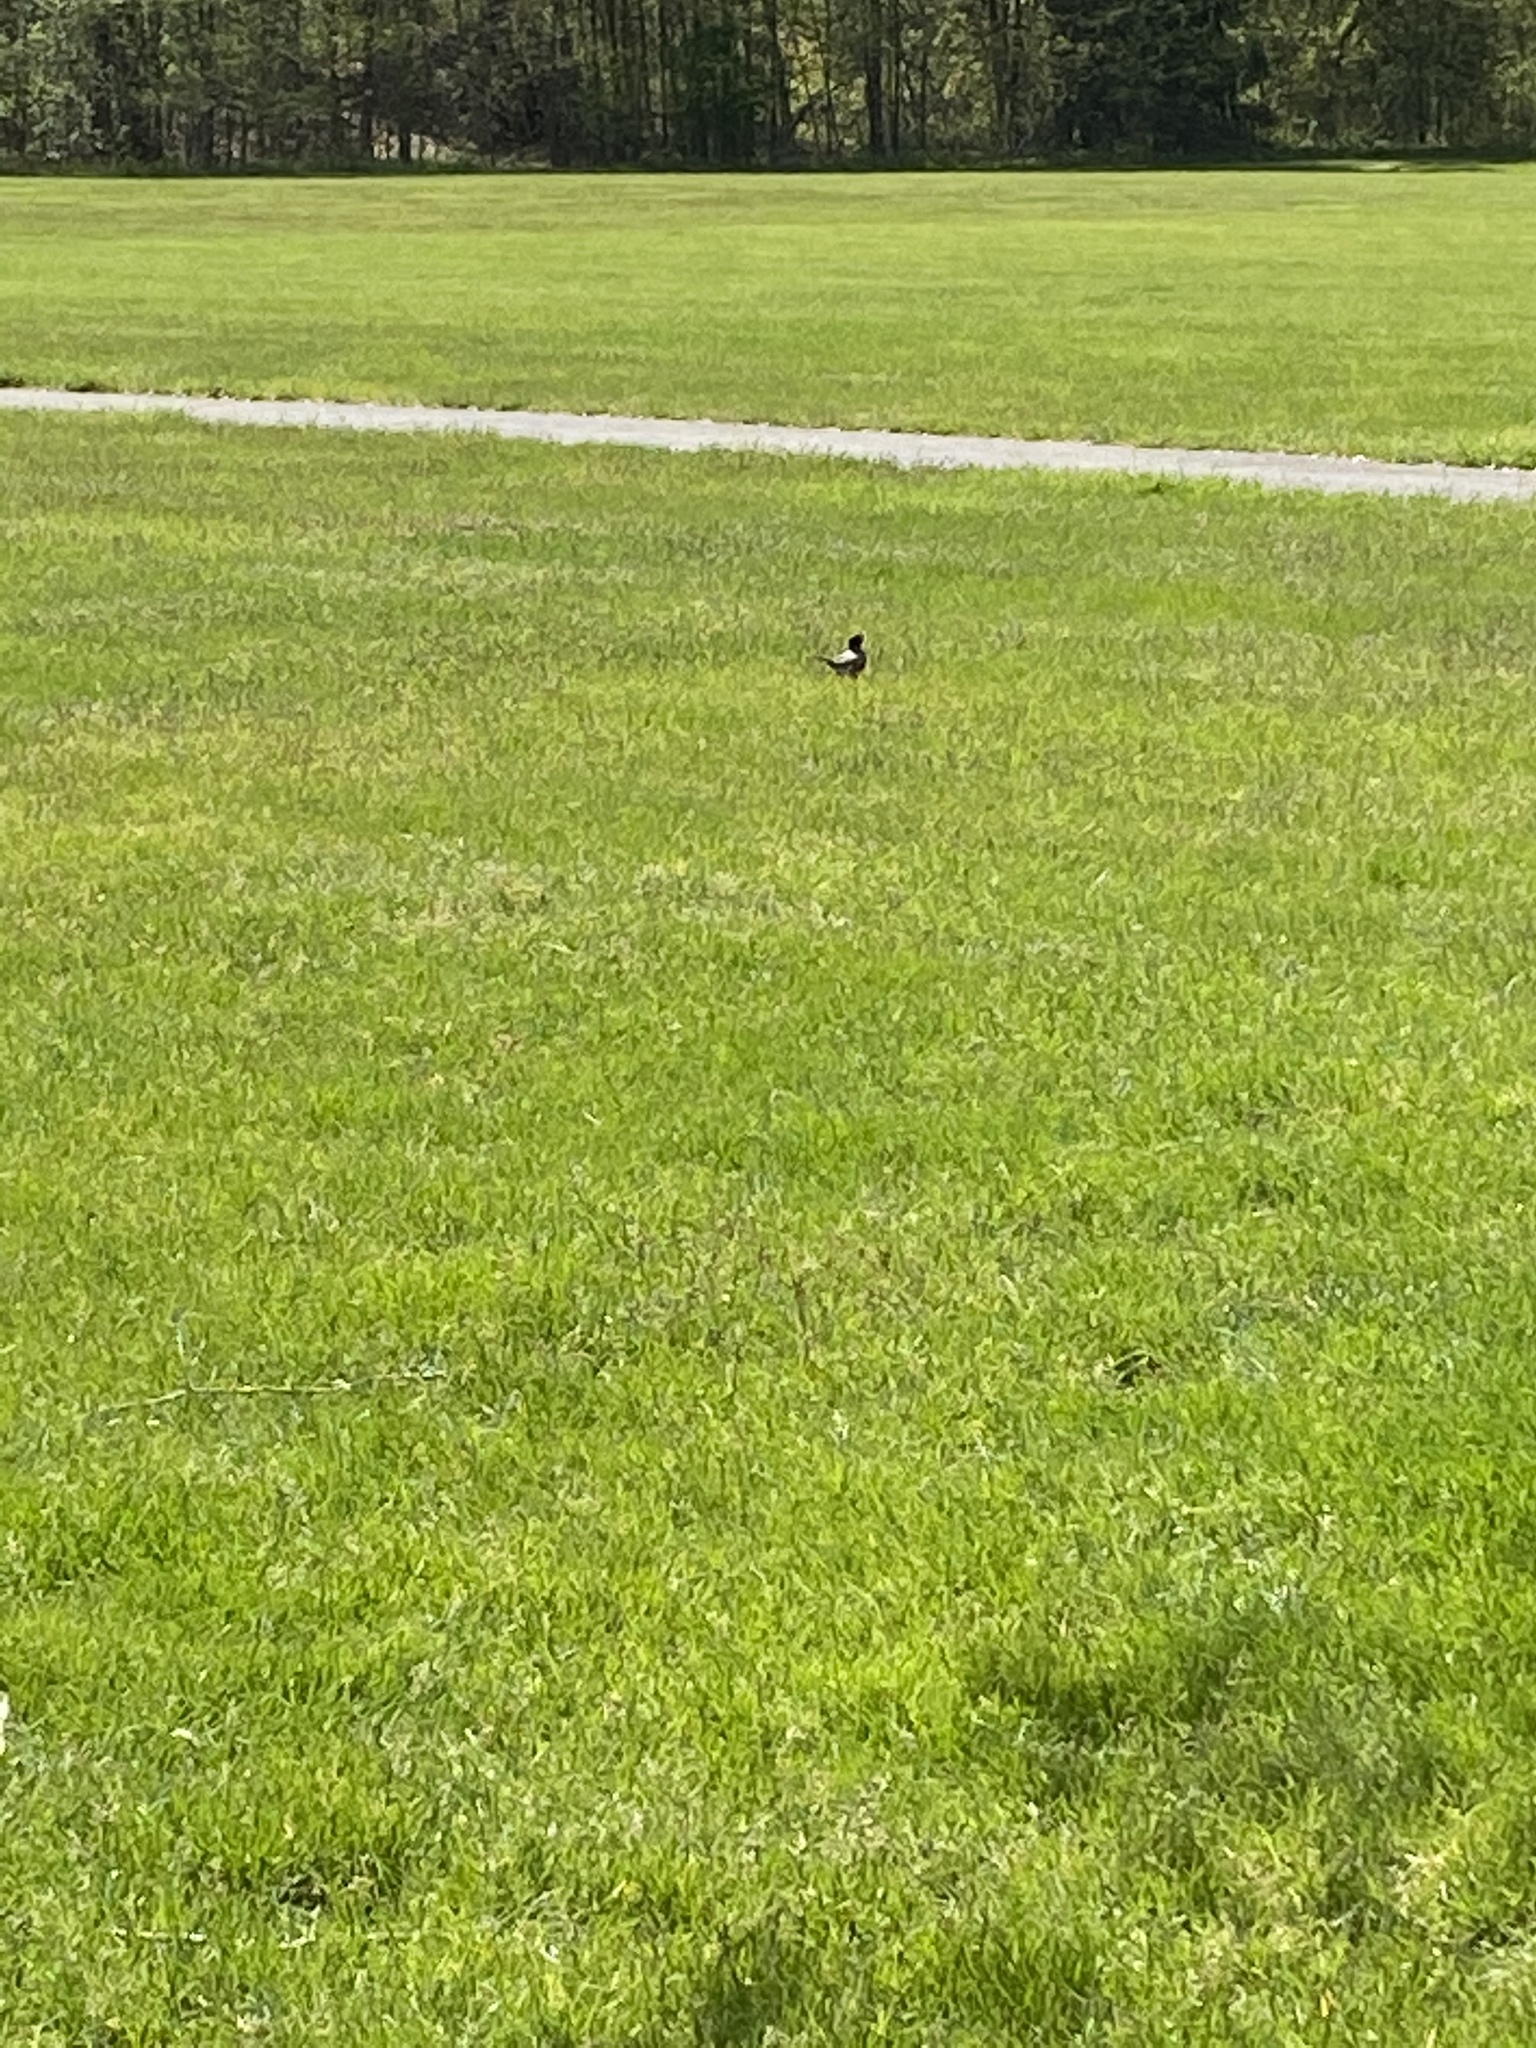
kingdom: Animalia
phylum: Chordata
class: Aves
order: Passeriformes
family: Turdidae
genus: Turdus
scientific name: Turdus migratorius
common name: American robin
